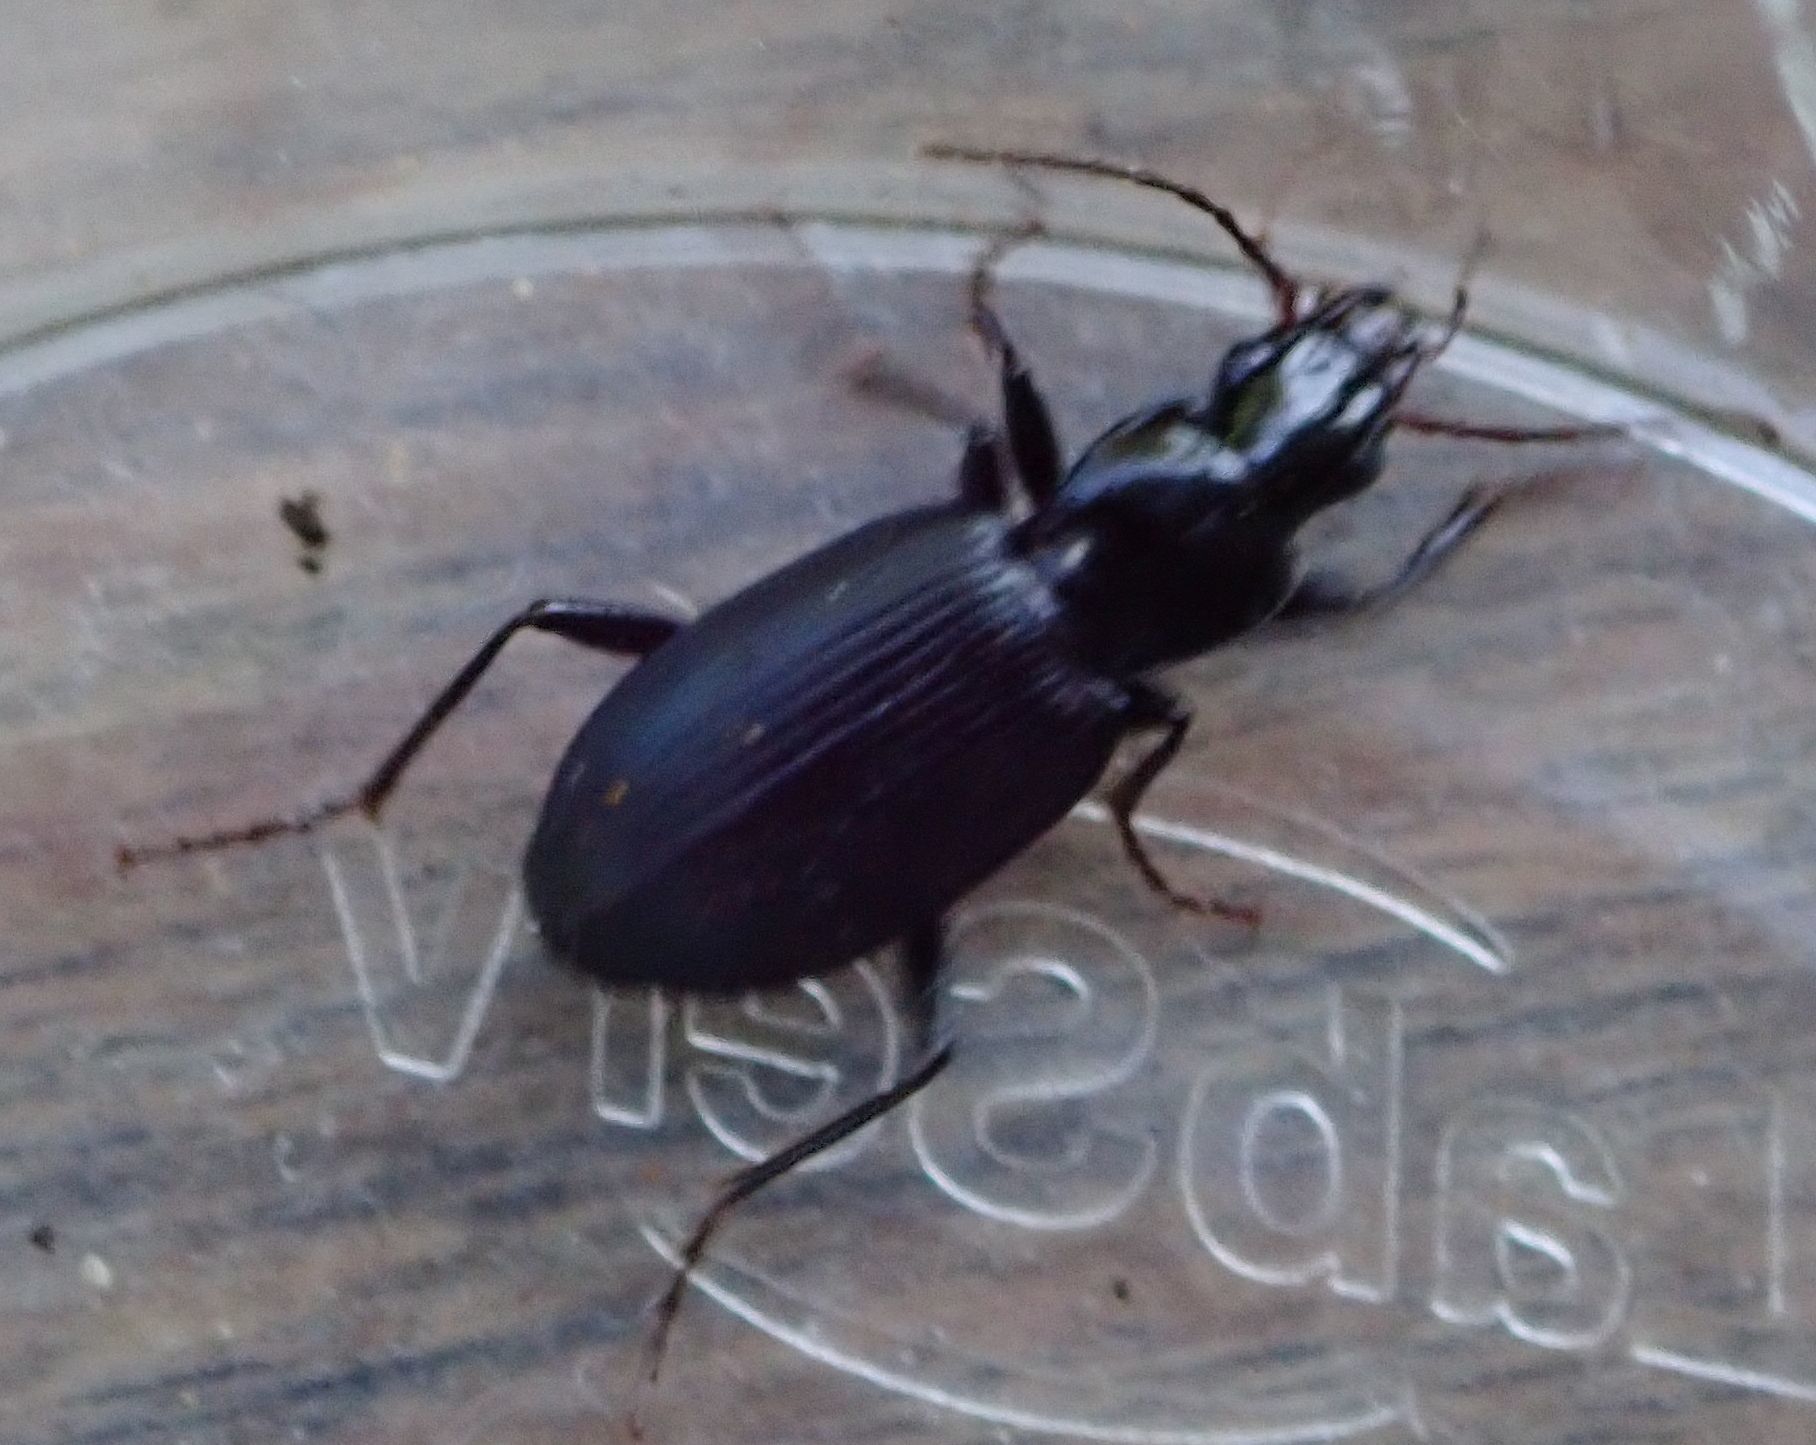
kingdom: Animalia
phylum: Arthropoda
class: Insecta
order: Coleoptera
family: Carabidae
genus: Laemostenus
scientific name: Laemostenus complanatus
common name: Cosmopolitan ground beetle
